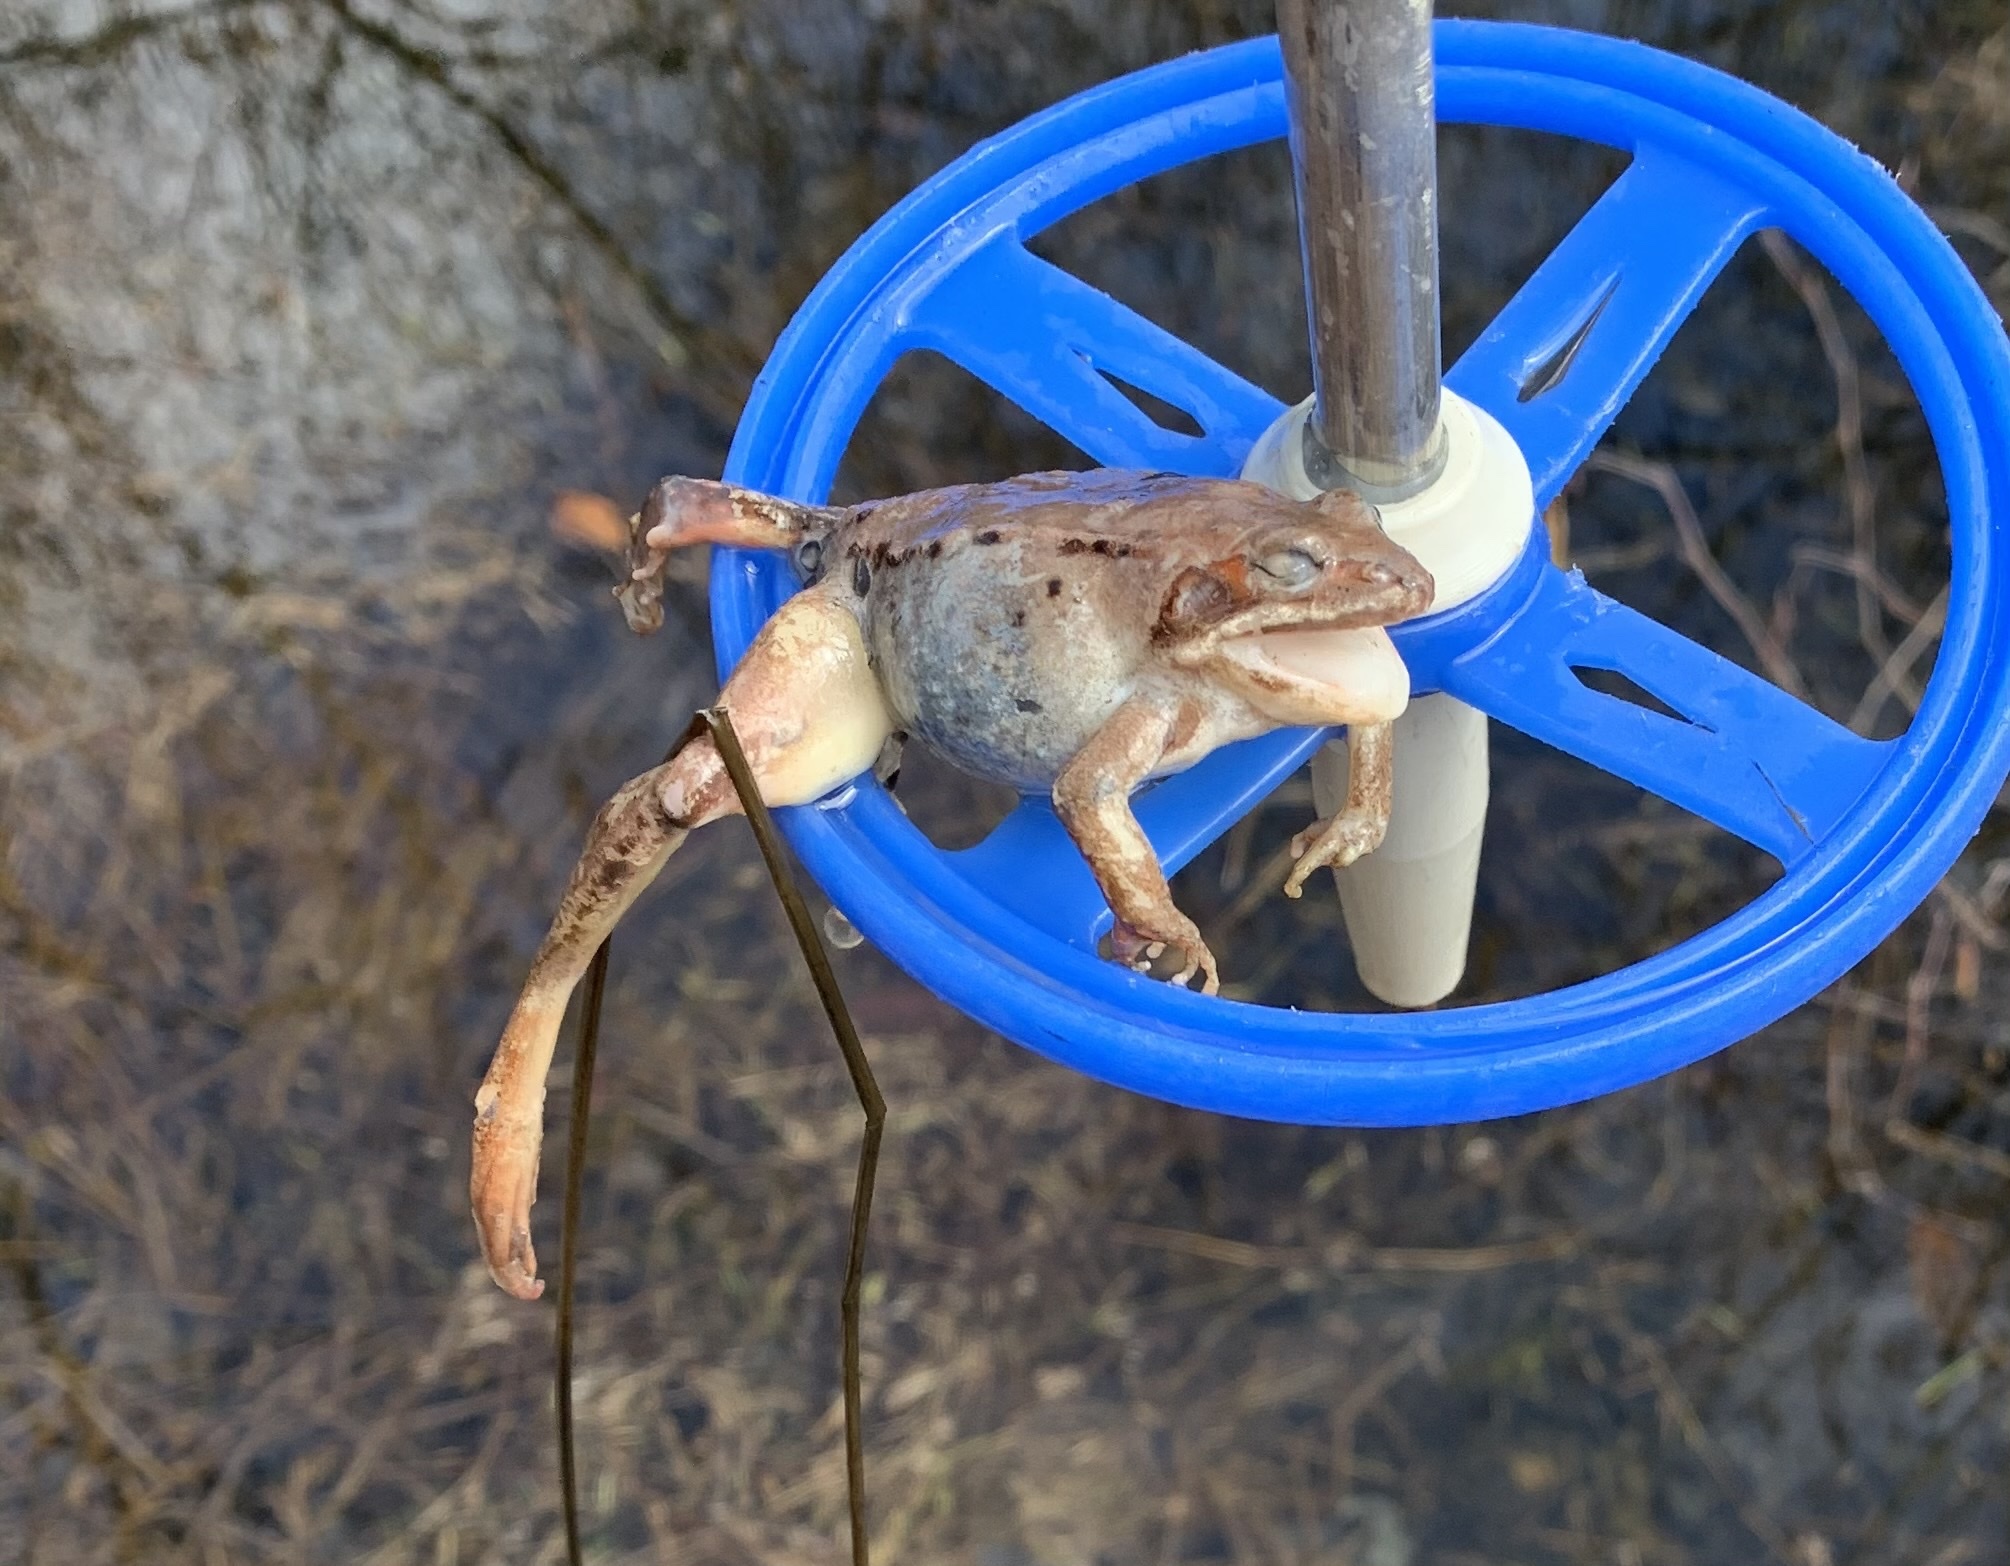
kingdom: Animalia
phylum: Chordata
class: Amphibia
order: Anura
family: Ranidae
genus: Lithobates
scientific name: Lithobates sylvaticus
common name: Wood frog
